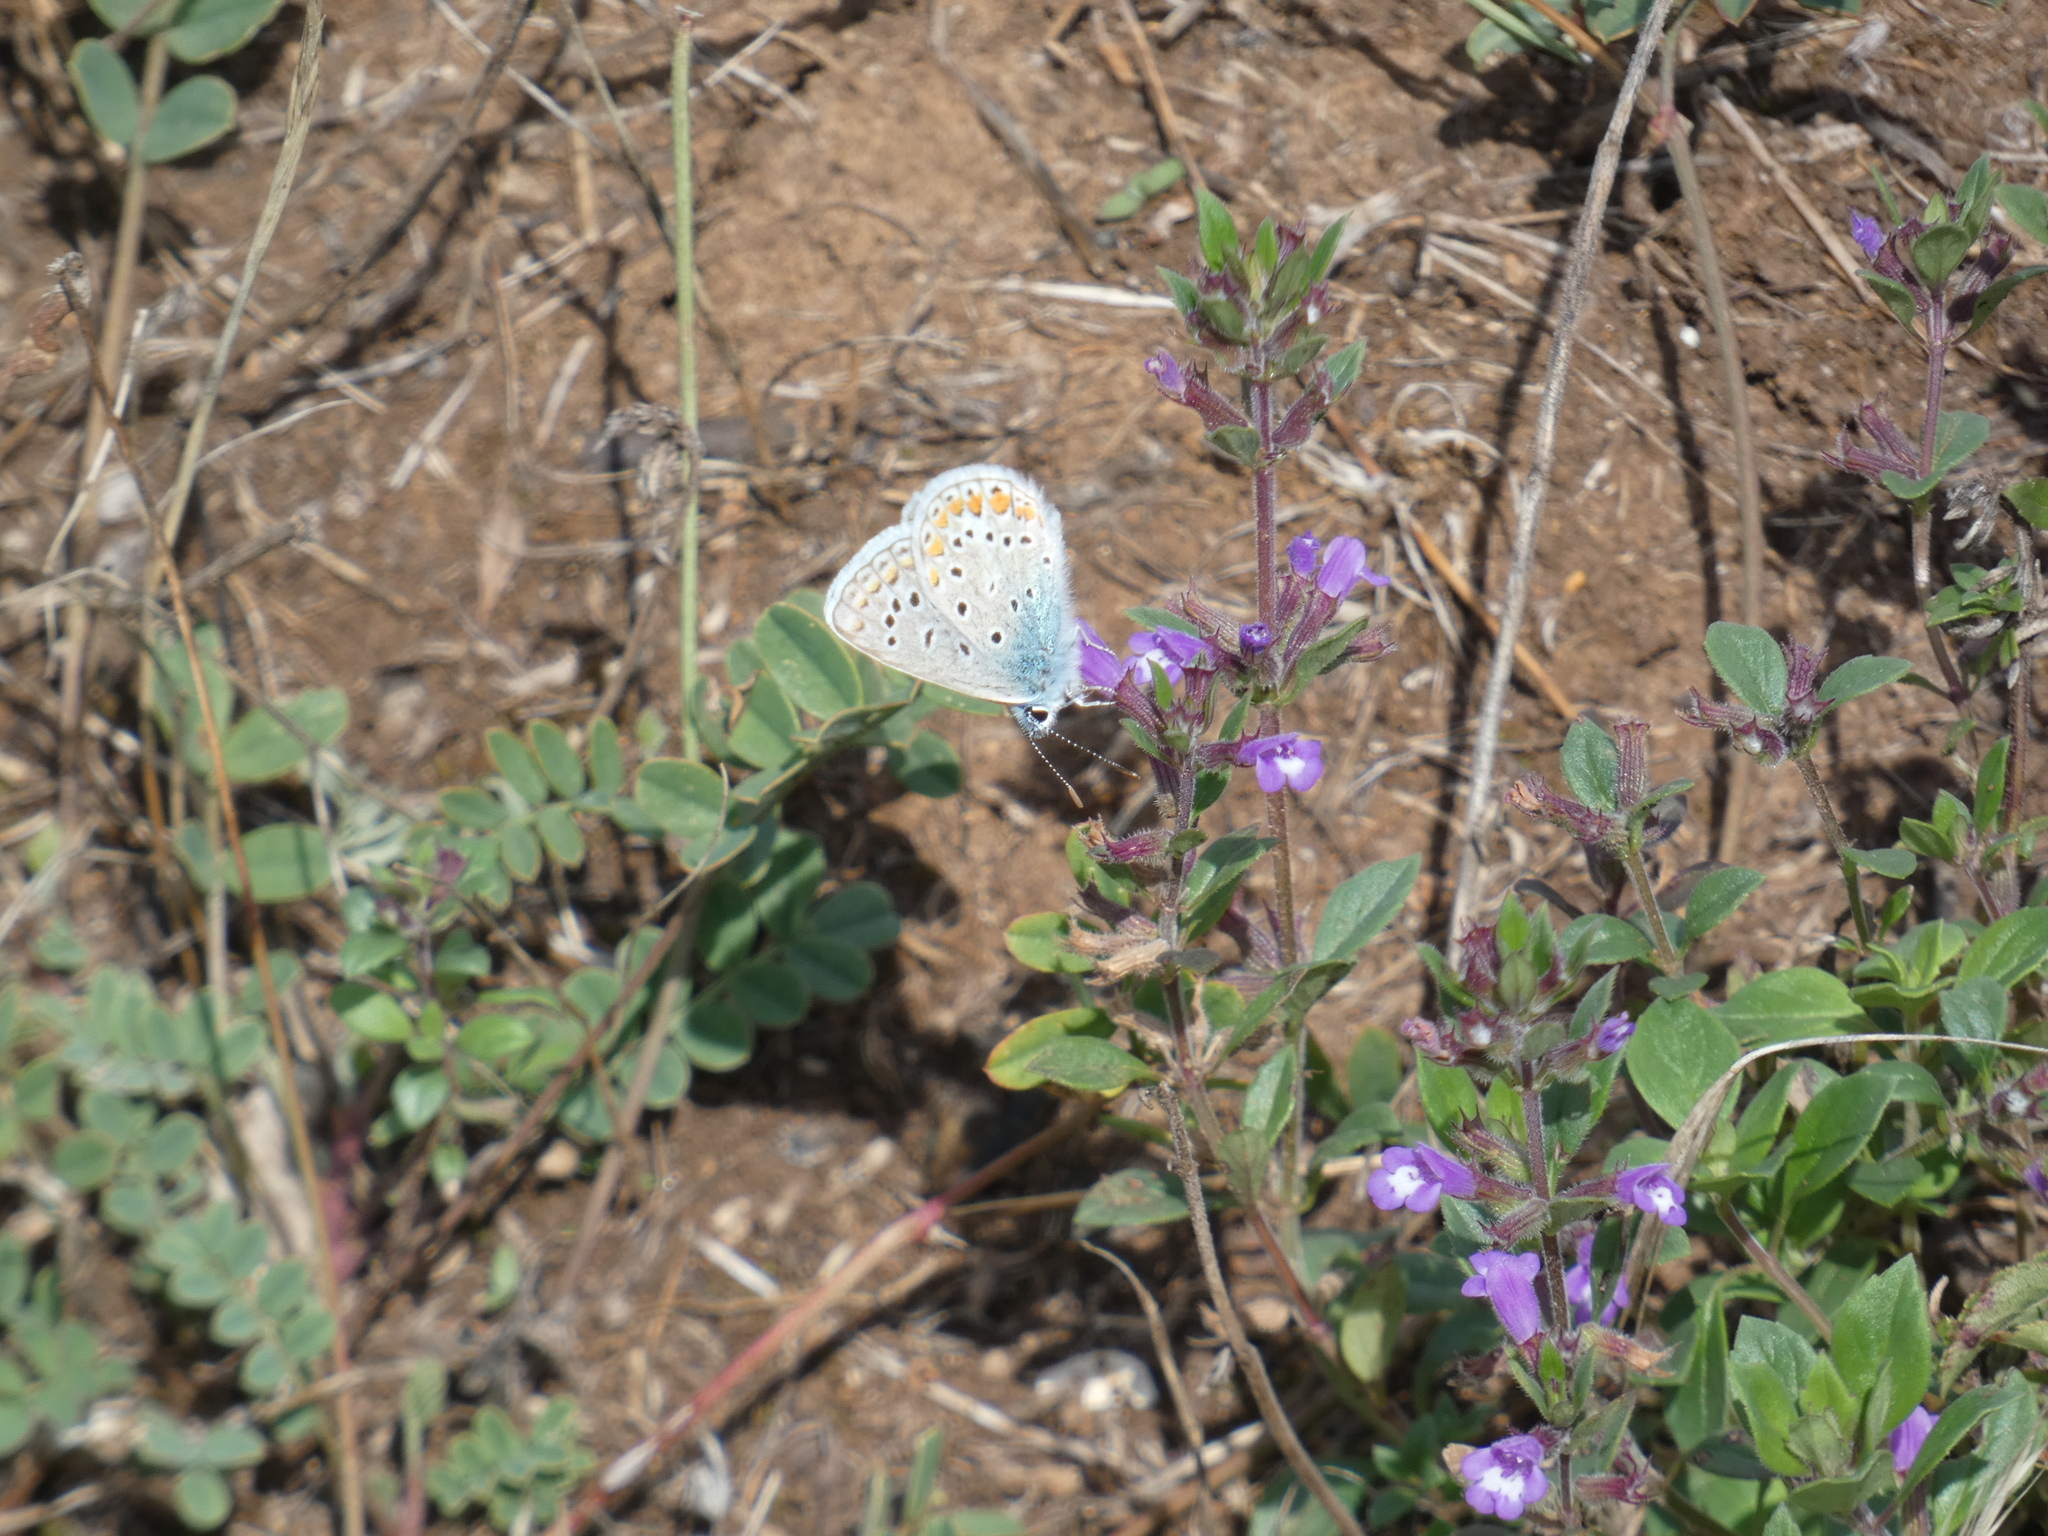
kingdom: Animalia
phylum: Arthropoda
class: Insecta
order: Lepidoptera
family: Lycaenidae
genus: Polyommatus
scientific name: Polyommatus icarus
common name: Common blue
